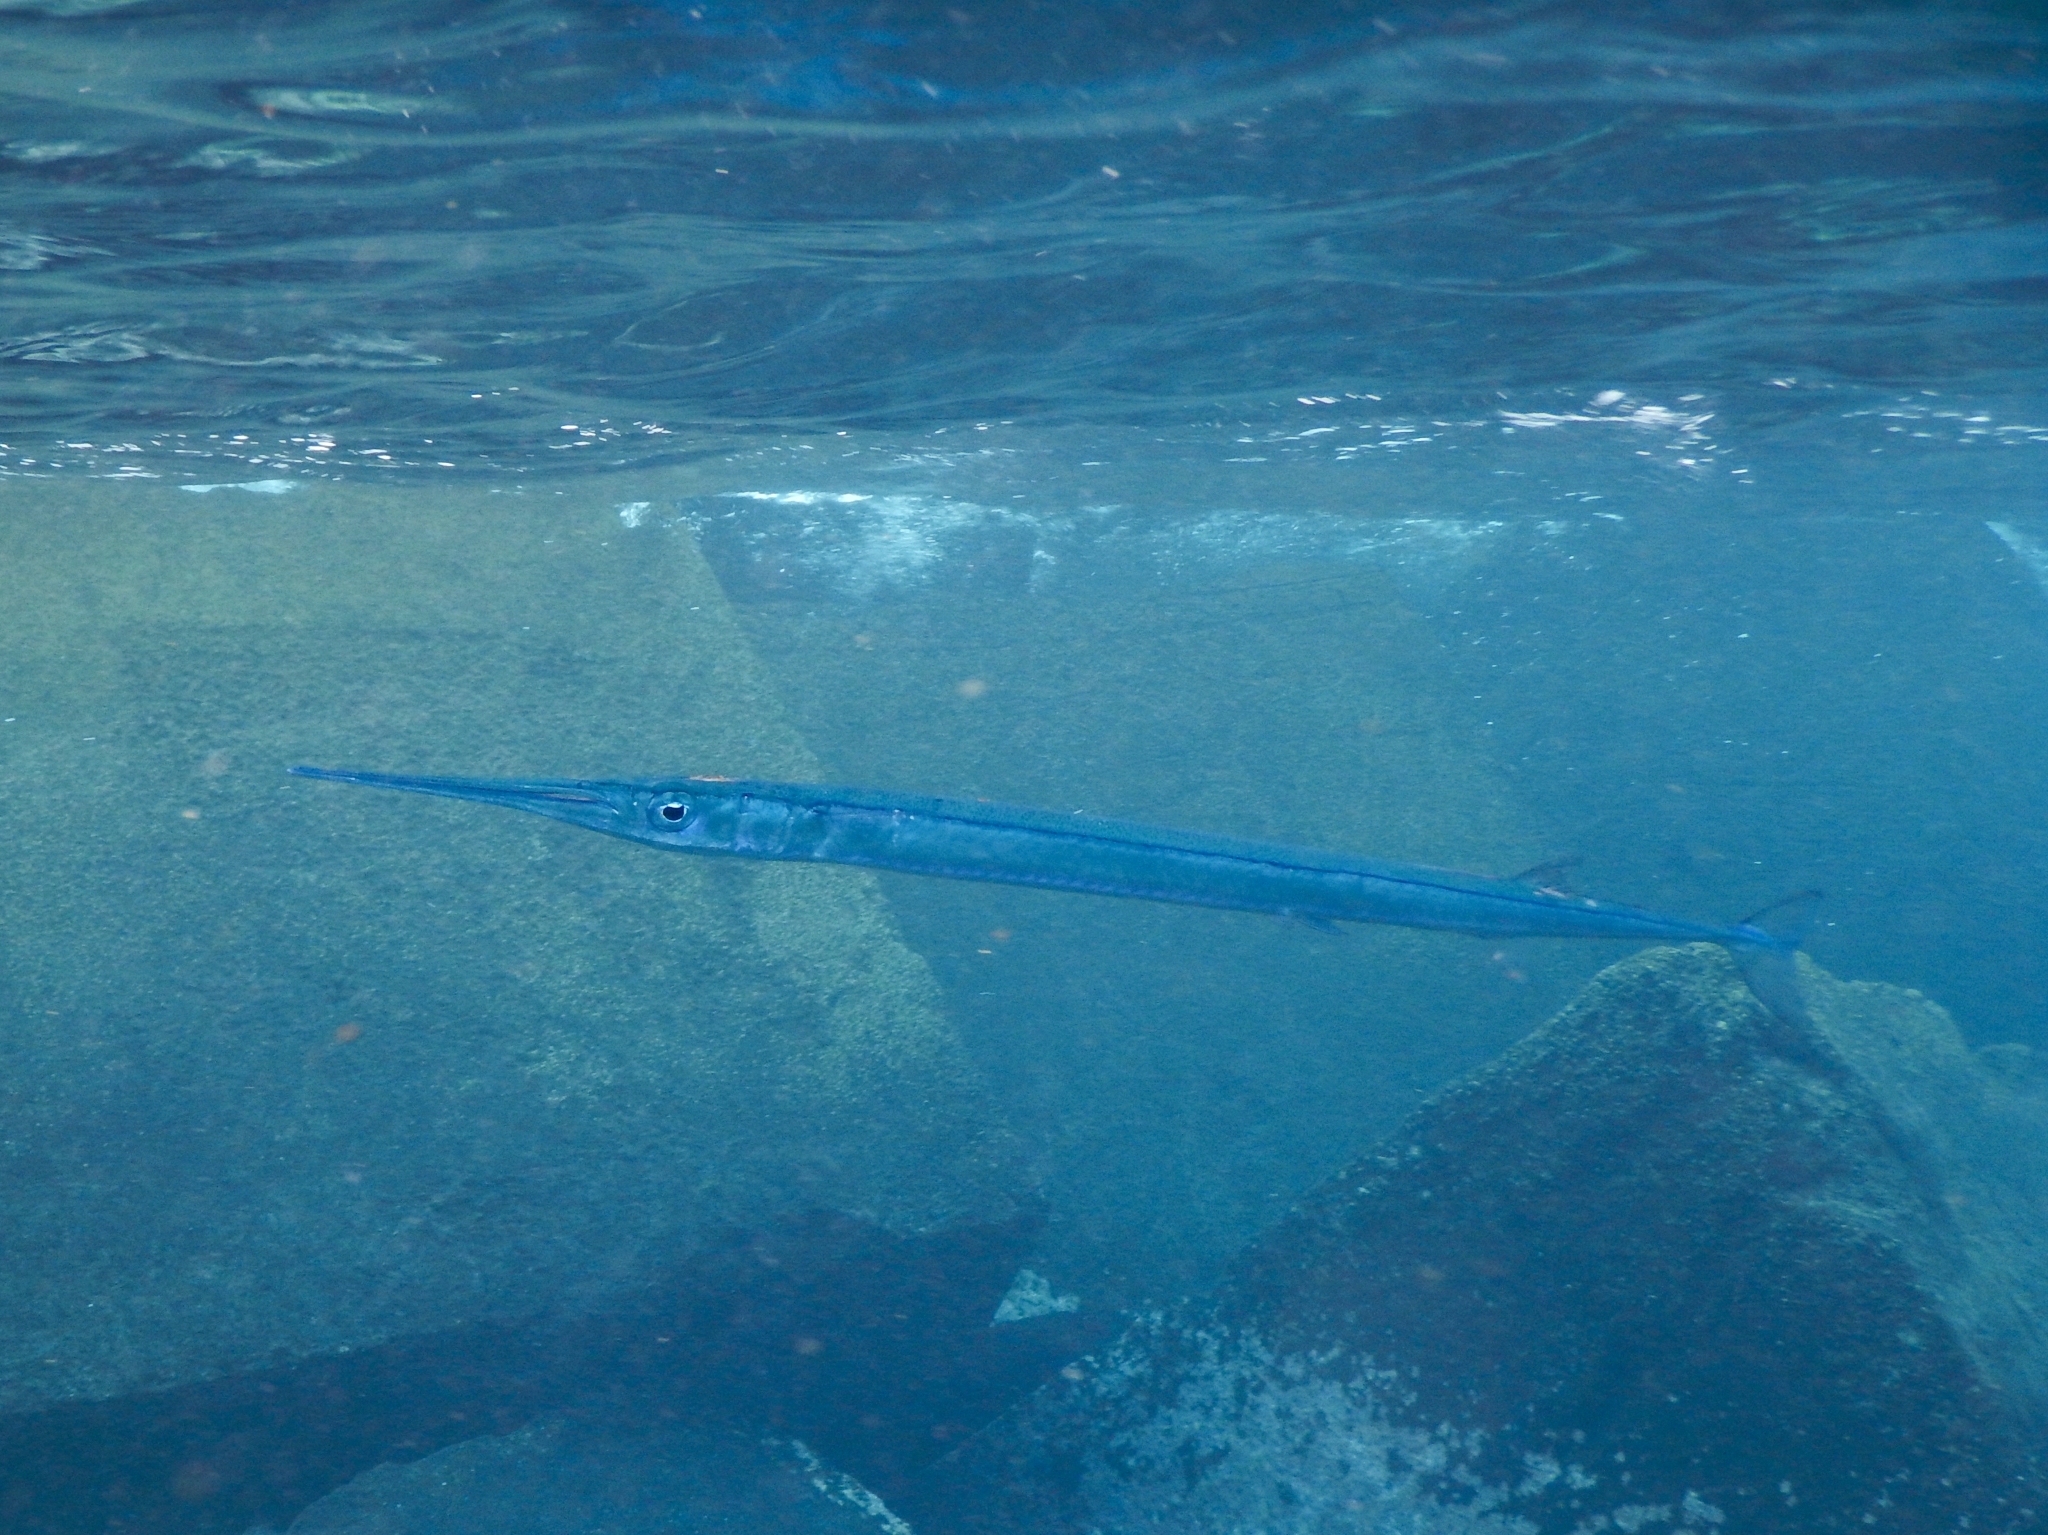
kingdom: Animalia
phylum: Chordata
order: Beloniformes
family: Belonidae
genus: Platybelone
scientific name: Platybelone argalus
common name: Keeltail needlefish
